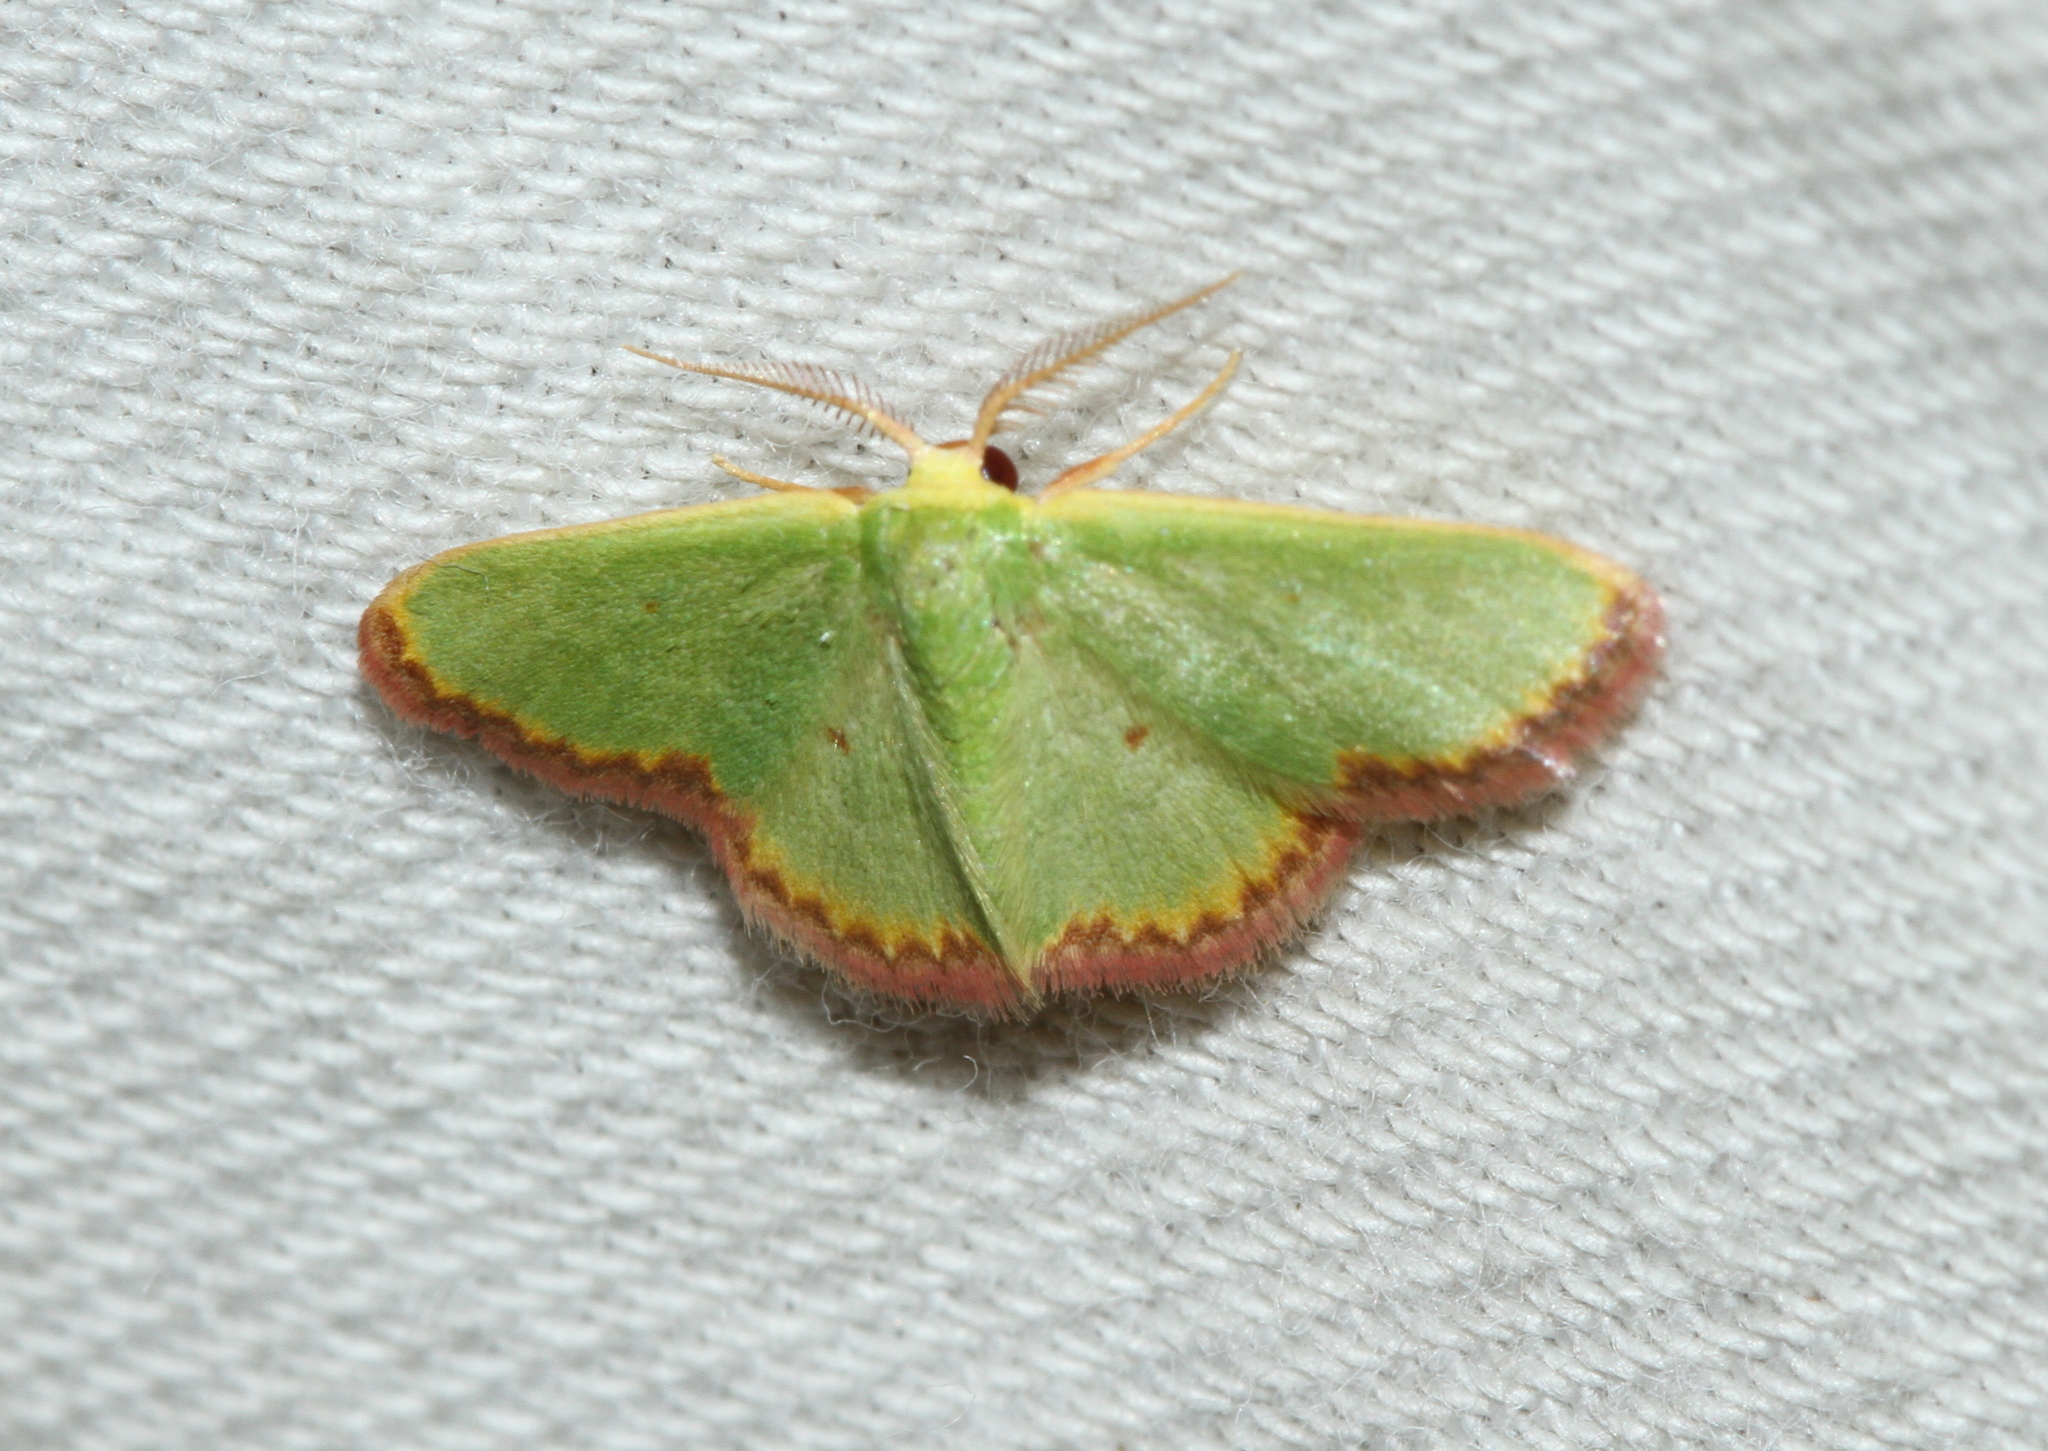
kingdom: Animalia
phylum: Arthropoda
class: Insecta
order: Lepidoptera
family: Geometridae
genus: Eucrostes
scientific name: Eucrostes indigenata
